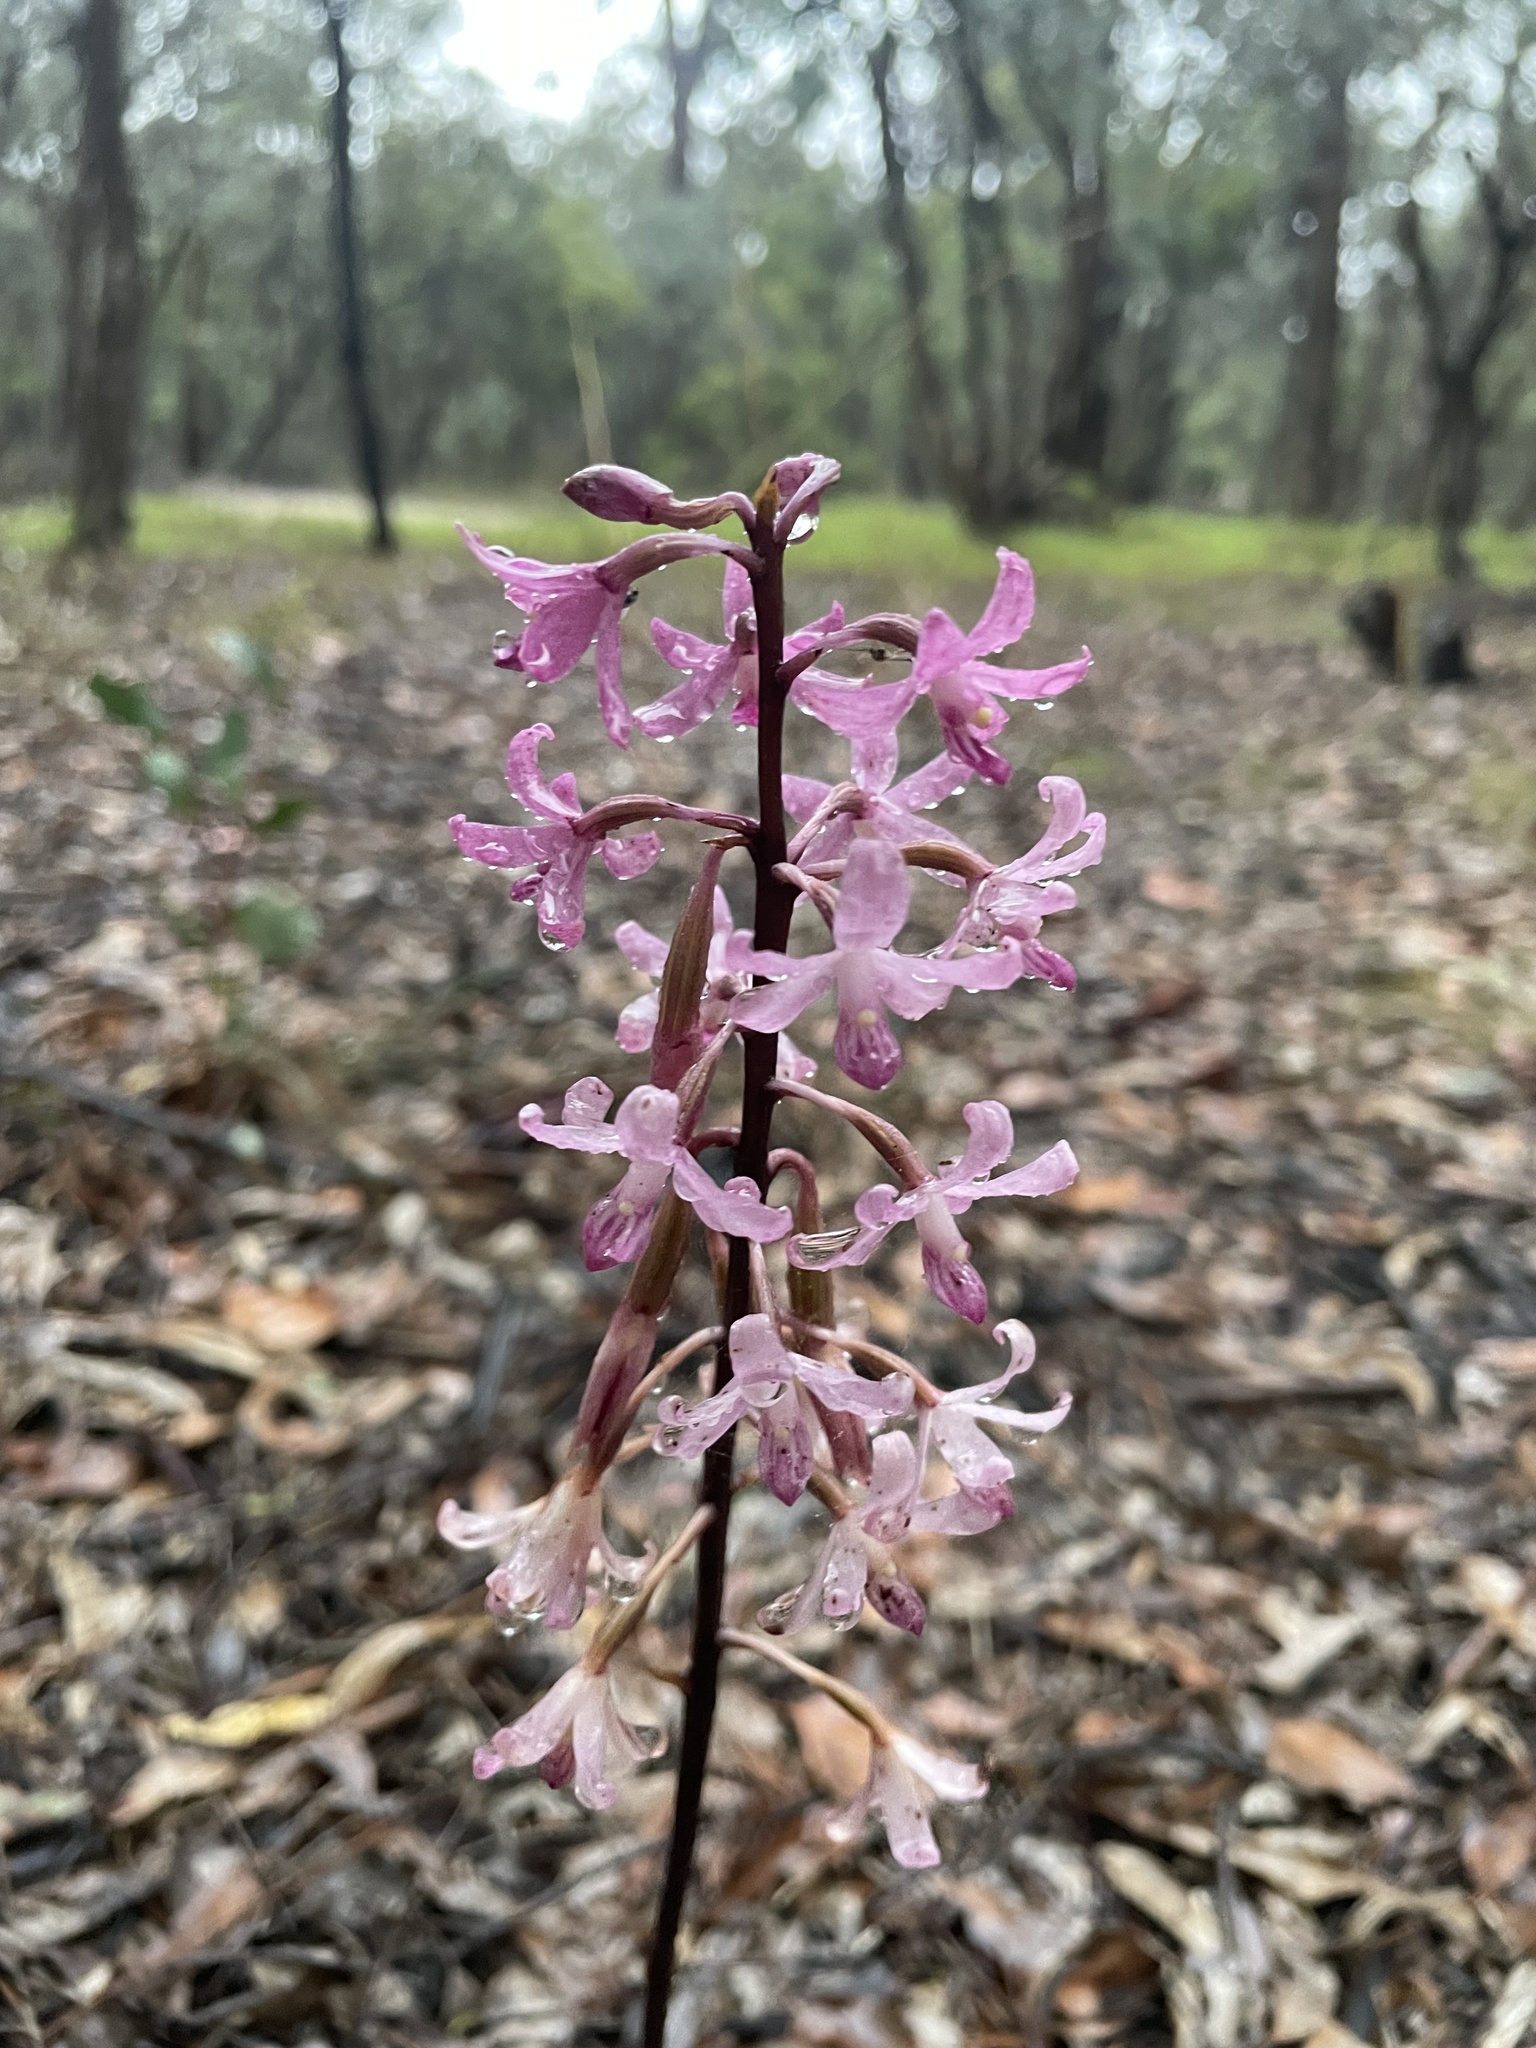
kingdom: Plantae
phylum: Tracheophyta
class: Liliopsida
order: Asparagales
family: Orchidaceae
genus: Dipodium
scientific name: Dipodium roseum
